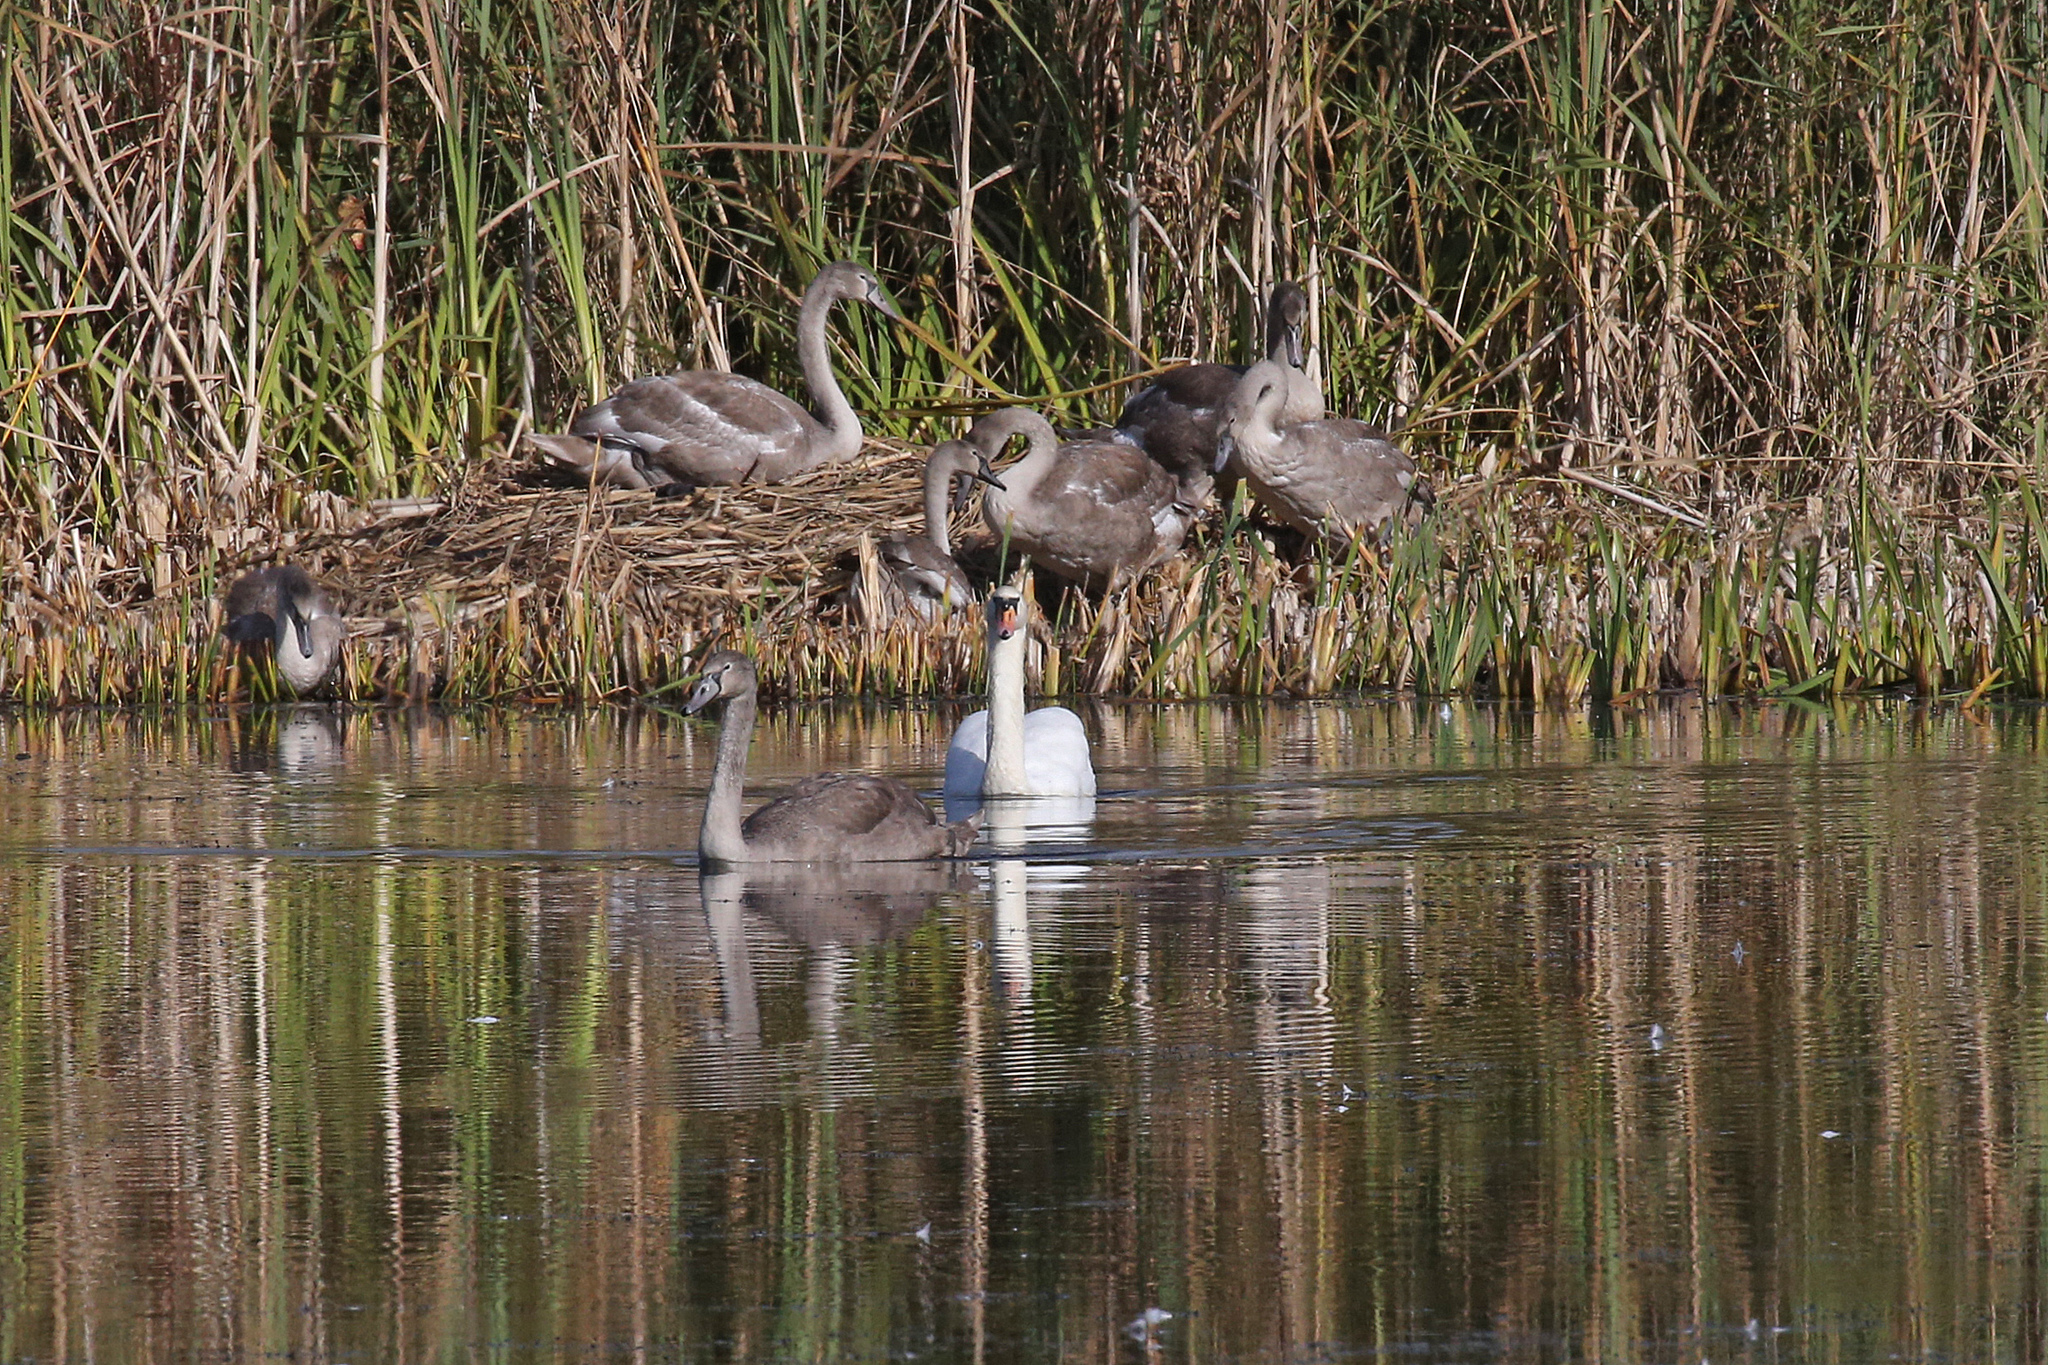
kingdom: Animalia
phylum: Chordata
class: Aves
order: Anseriformes
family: Anatidae
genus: Cygnus
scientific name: Cygnus olor
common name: Mute swan
